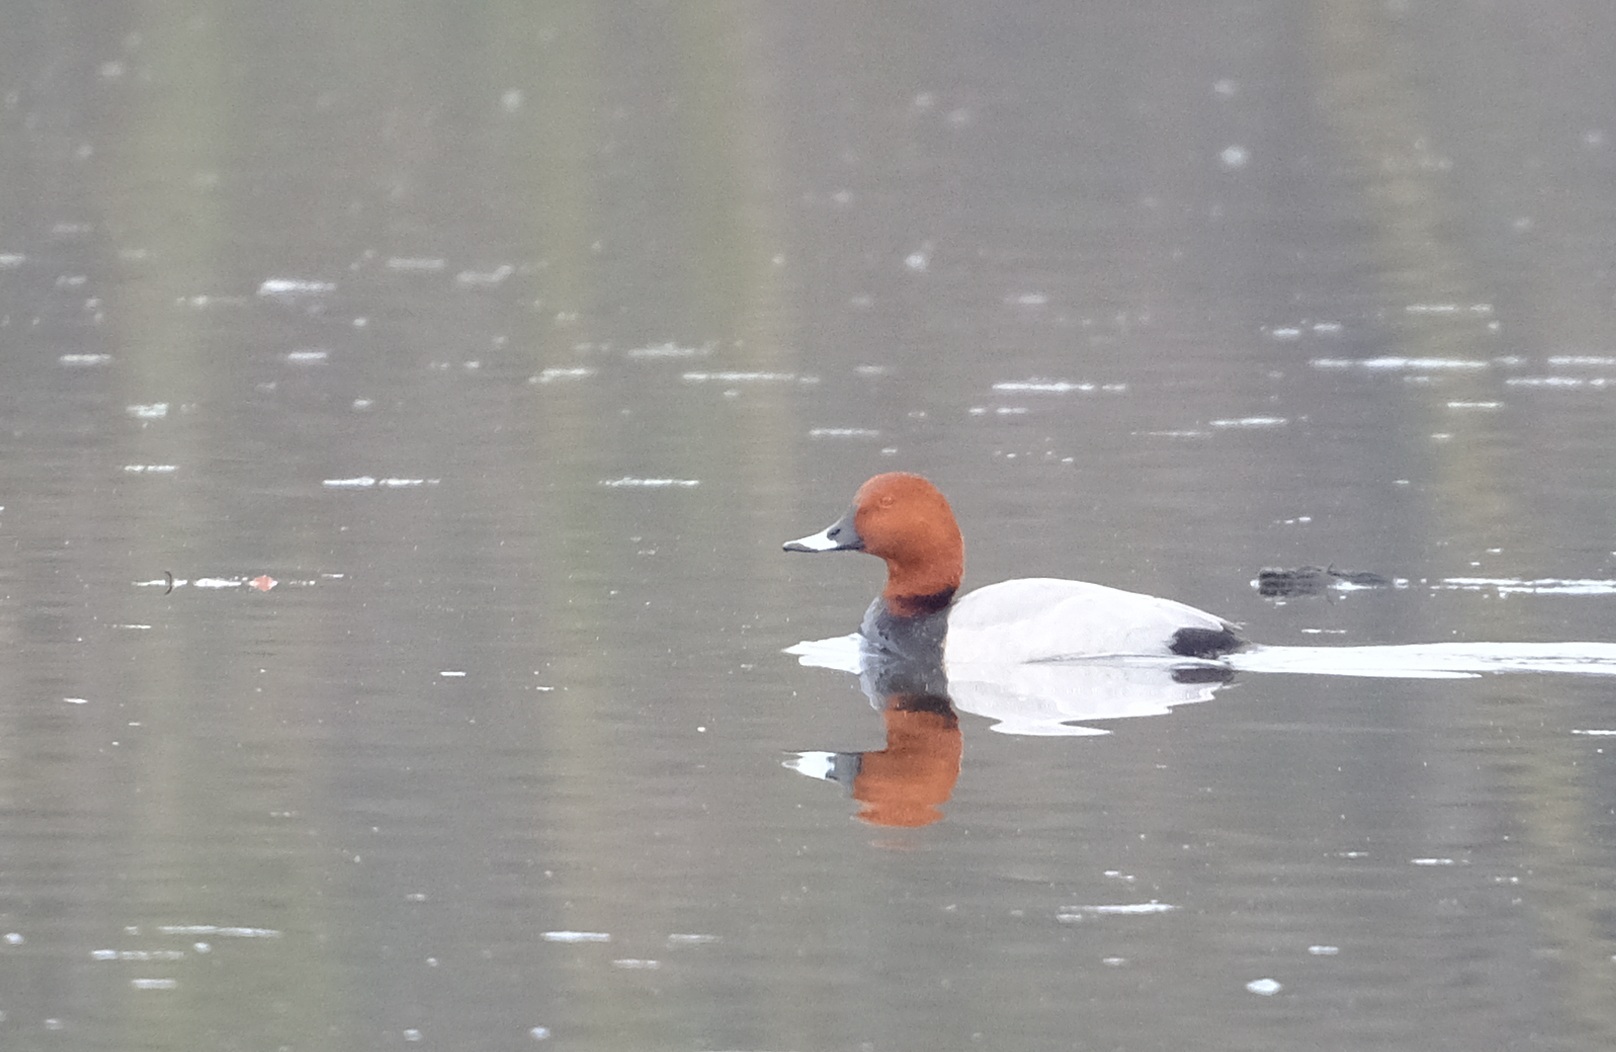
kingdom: Animalia
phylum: Chordata
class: Aves
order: Anseriformes
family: Anatidae
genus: Aythya
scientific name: Aythya ferina
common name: Common pochard
